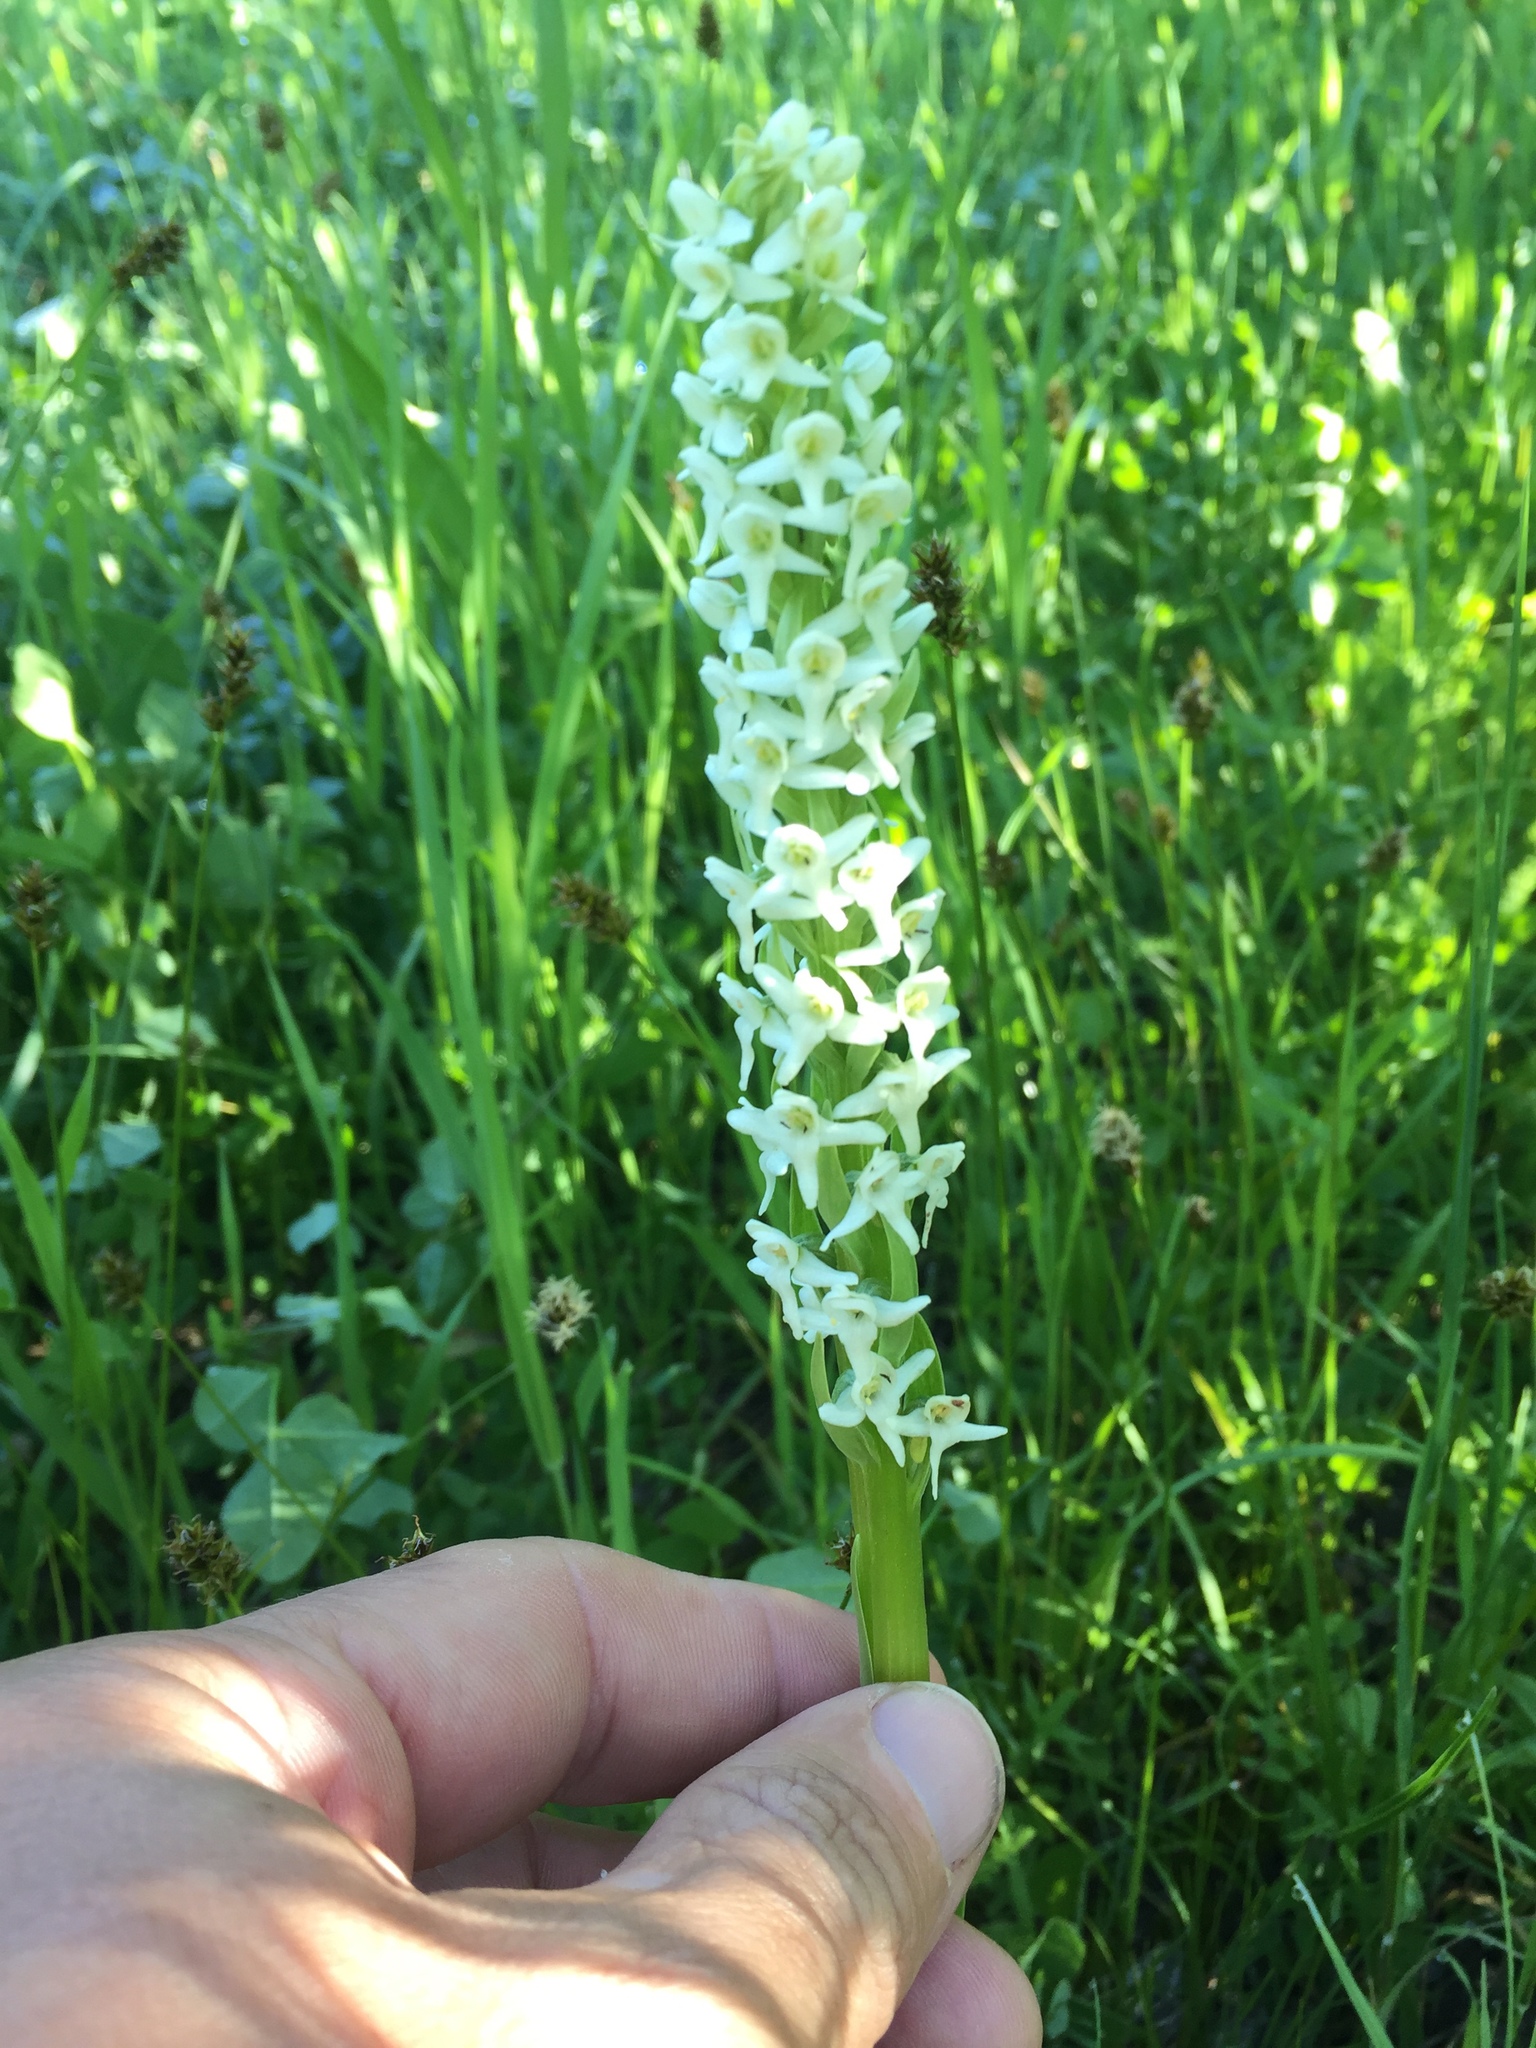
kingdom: Plantae
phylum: Tracheophyta
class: Liliopsida
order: Asparagales
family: Orchidaceae
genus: Platanthera
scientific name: Platanthera dilatata
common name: Bog candles
